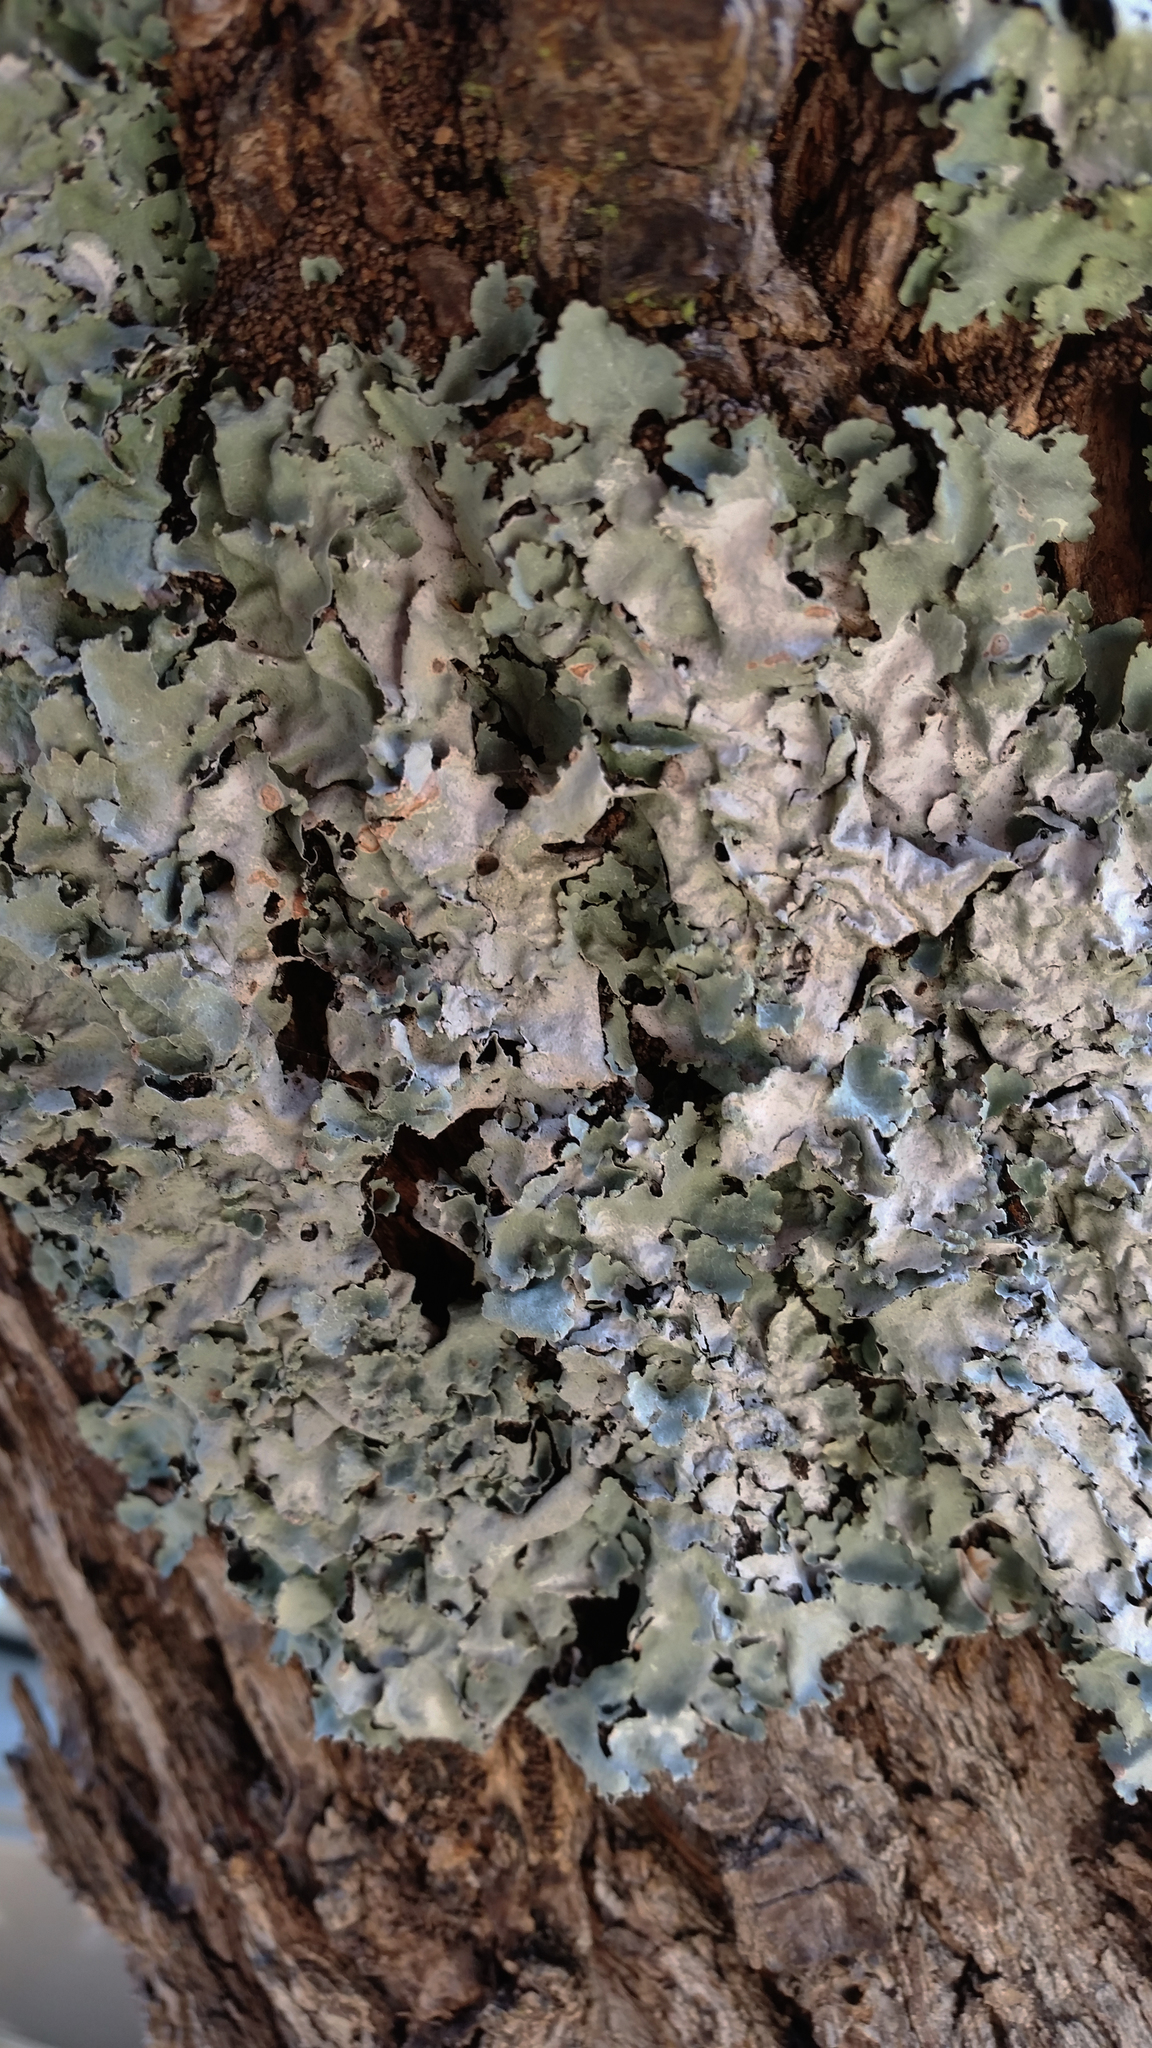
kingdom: Fungi
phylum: Ascomycota
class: Lecanoromycetes
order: Lecanorales
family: Parmeliaceae
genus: Parmotrema
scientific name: Parmotrema reticulatum
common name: Black sheet lichen
